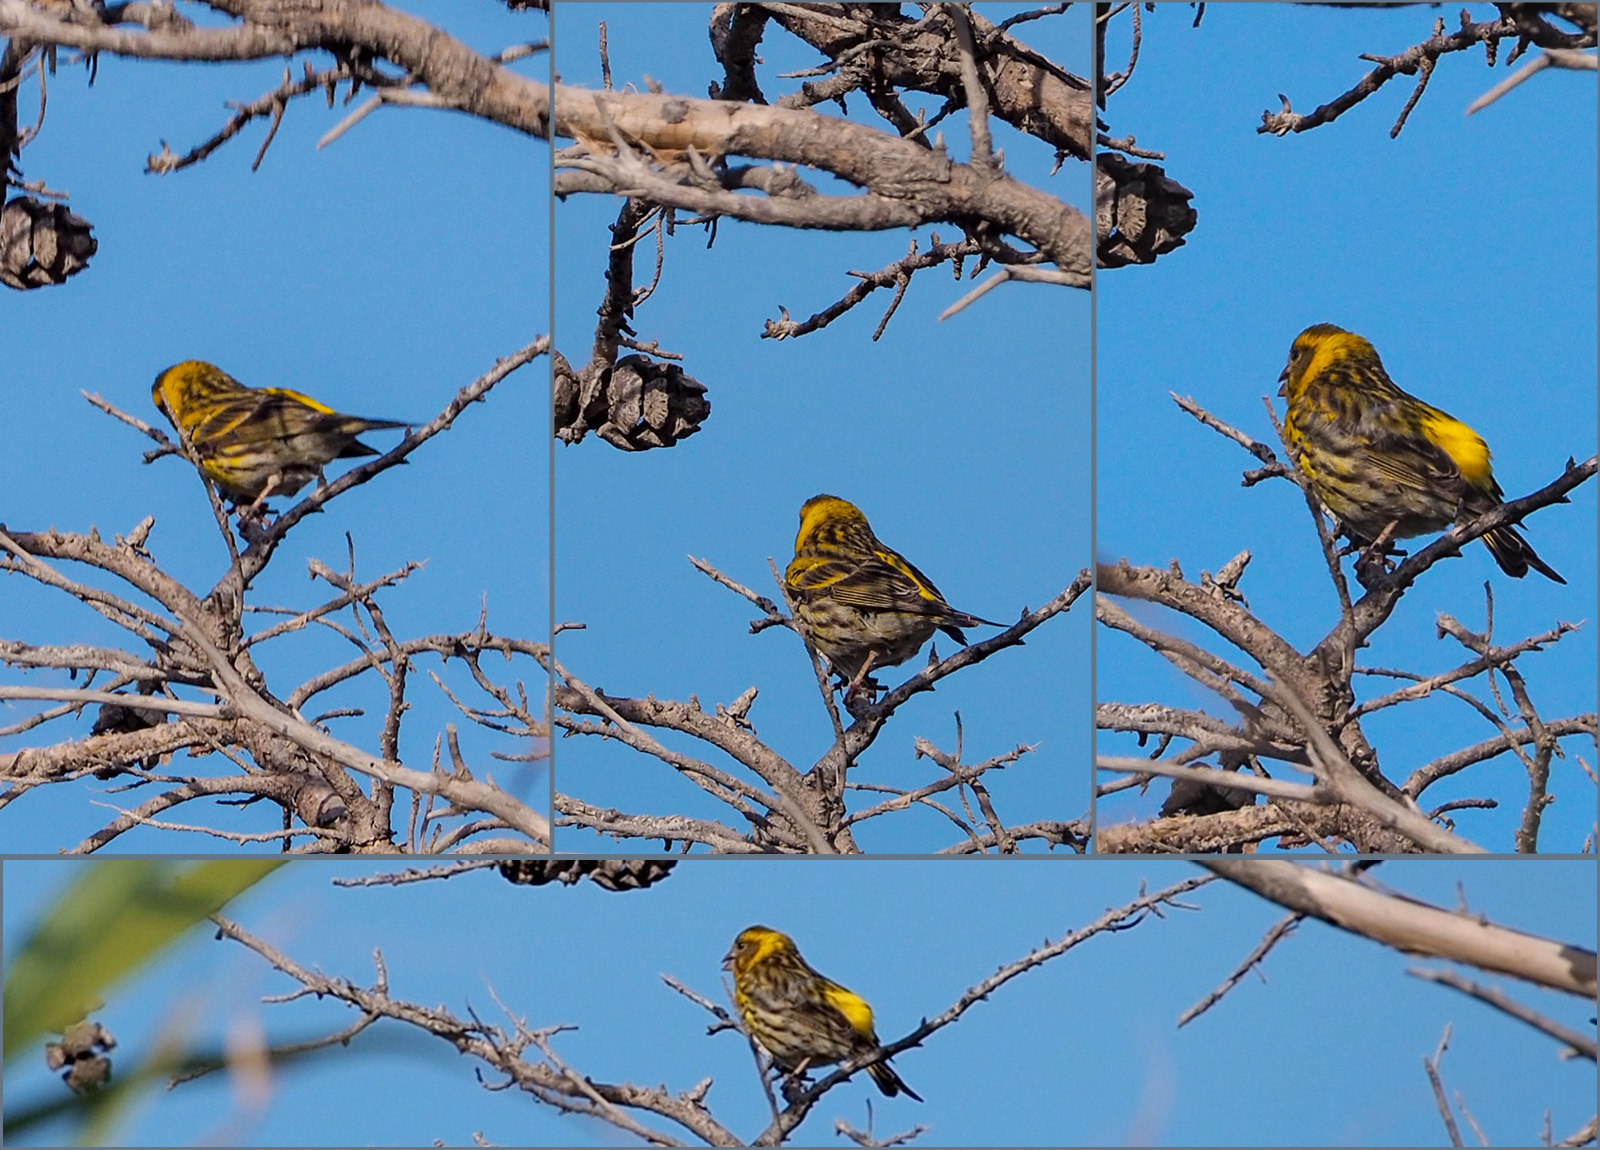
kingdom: Animalia
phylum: Chordata
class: Aves
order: Passeriformes
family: Fringillidae
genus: Serinus
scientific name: Serinus serinus
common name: European serin
